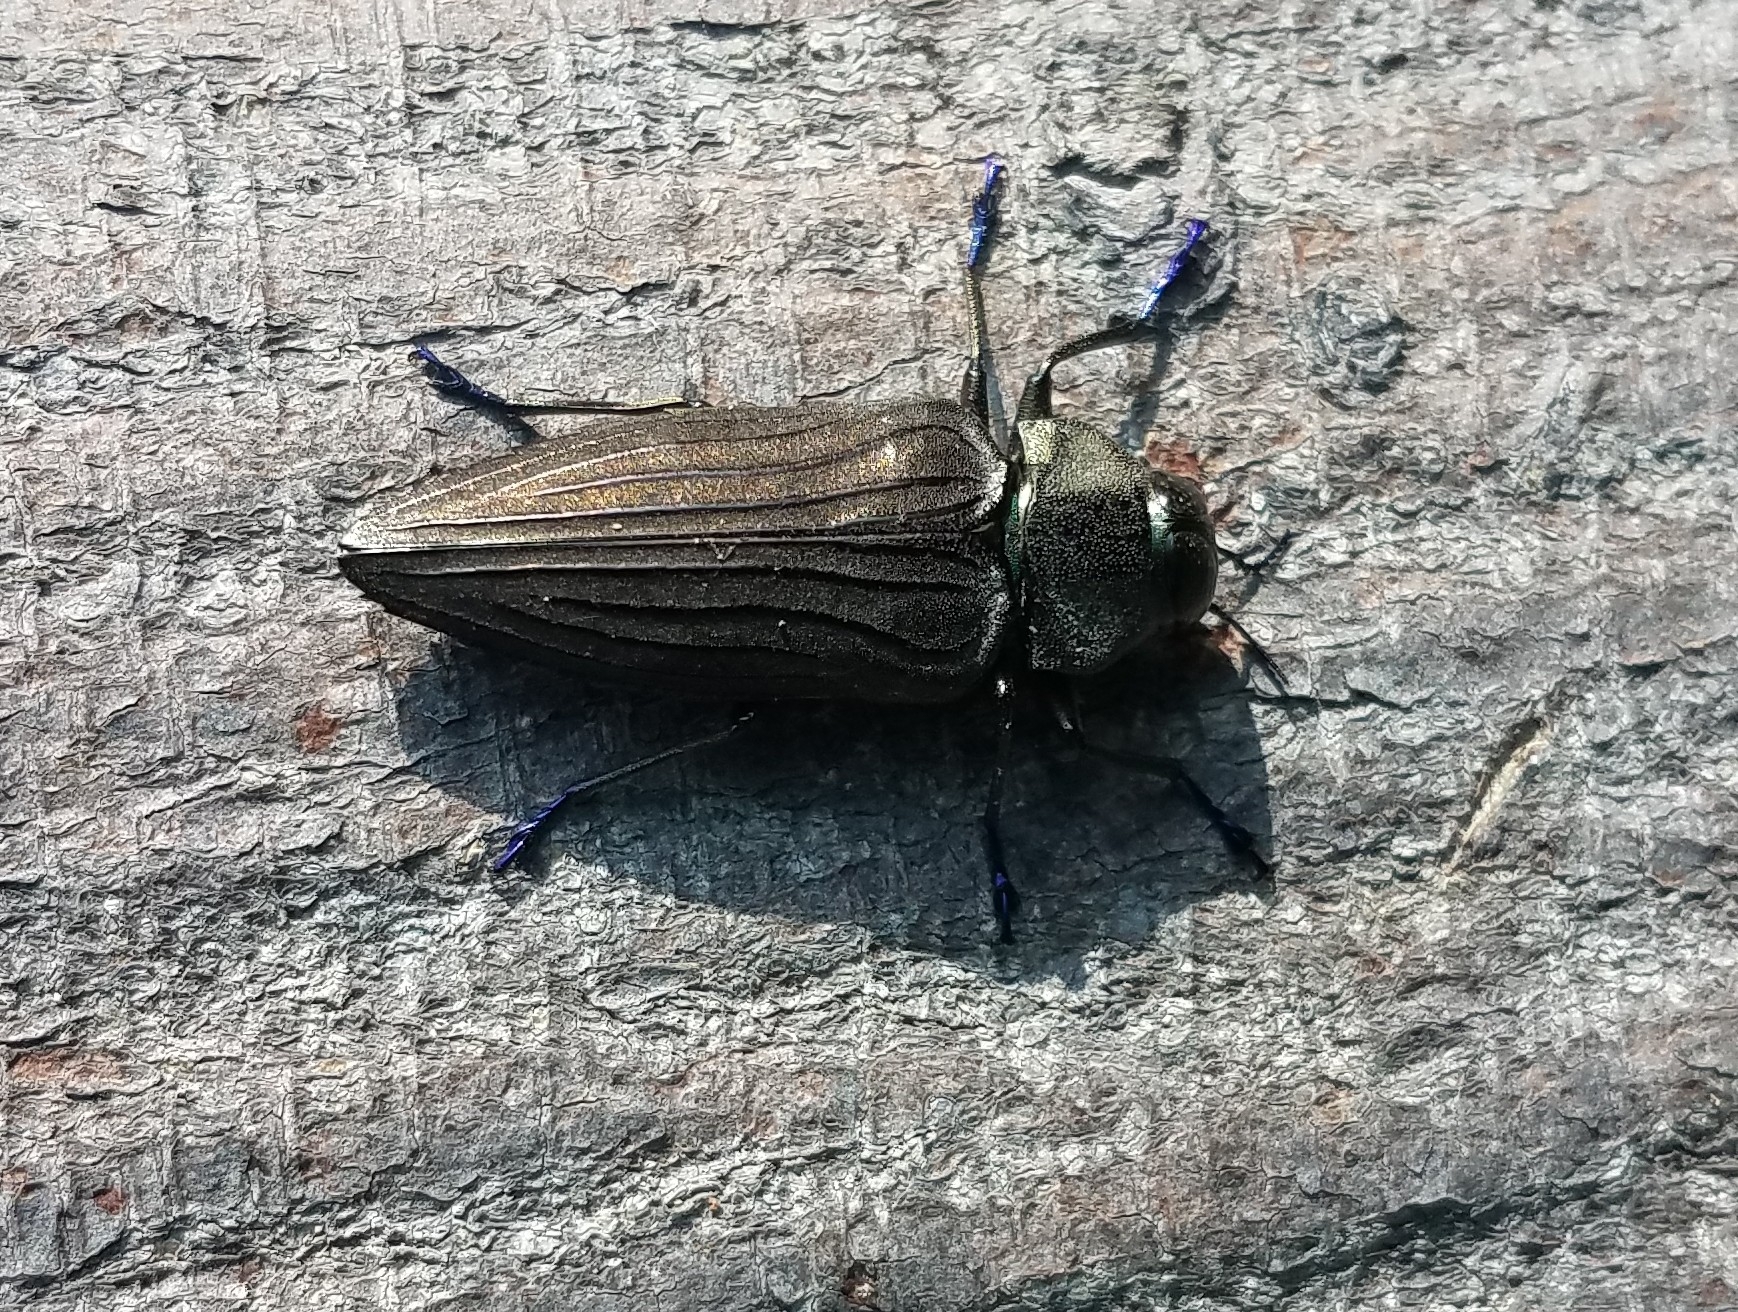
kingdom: Animalia
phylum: Arthropoda
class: Insecta
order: Coleoptera
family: Buprestidae
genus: Actenodes
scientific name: Actenodes chalybaeitarsis
